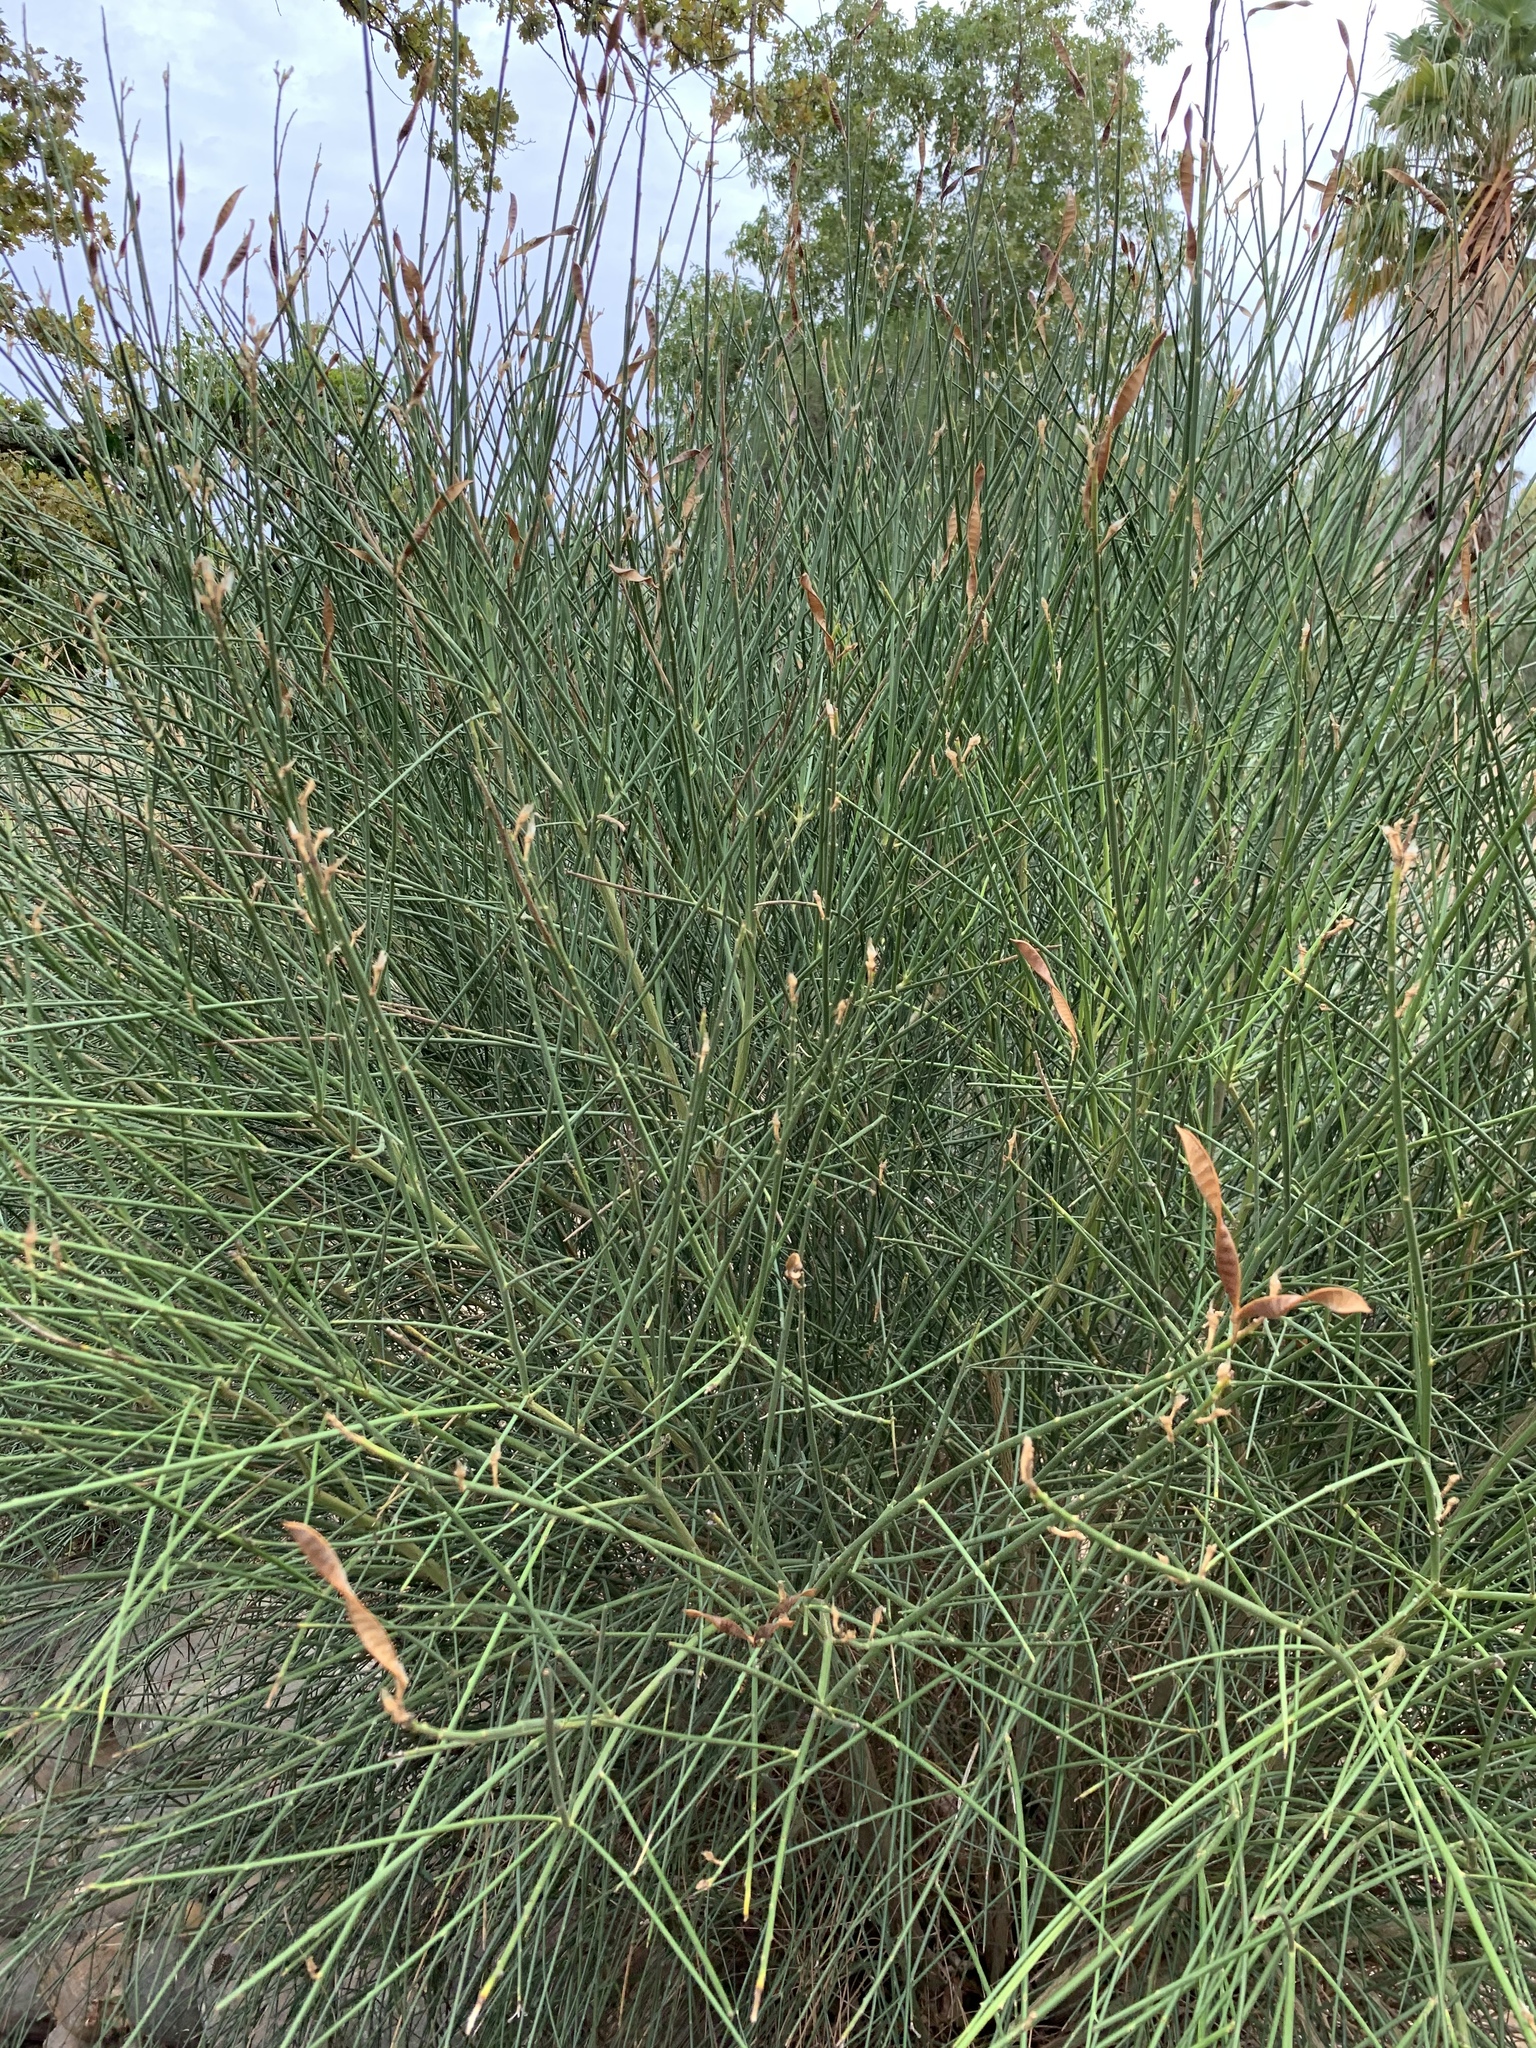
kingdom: Plantae
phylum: Tracheophyta
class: Magnoliopsida
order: Fabales
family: Fabaceae
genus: Spartium
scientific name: Spartium junceum
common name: Spanish broom
